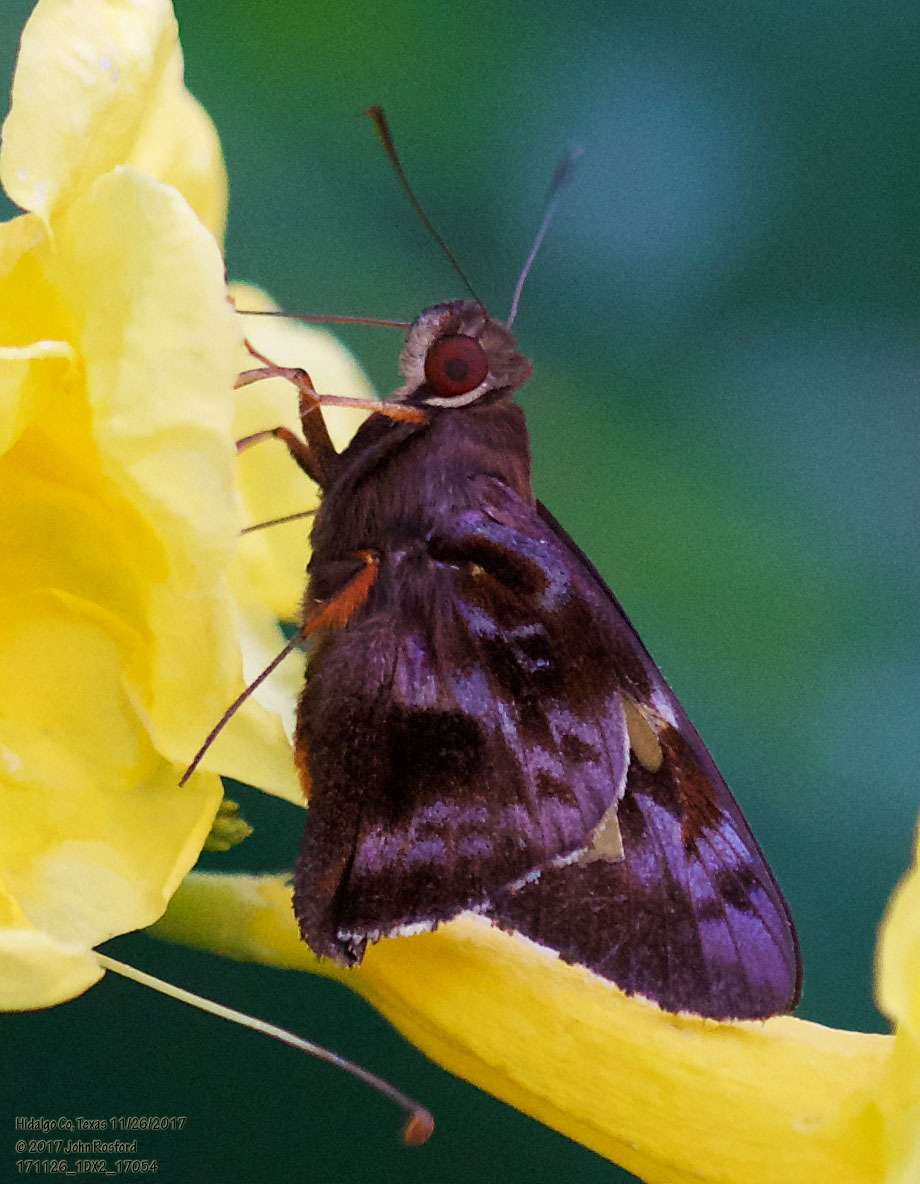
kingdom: Animalia
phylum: Arthropoda
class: Insecta
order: Lepidoptera
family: Hesperiidae
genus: Perichares
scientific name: Perichares philetes
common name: Green-backed ruby-eye
